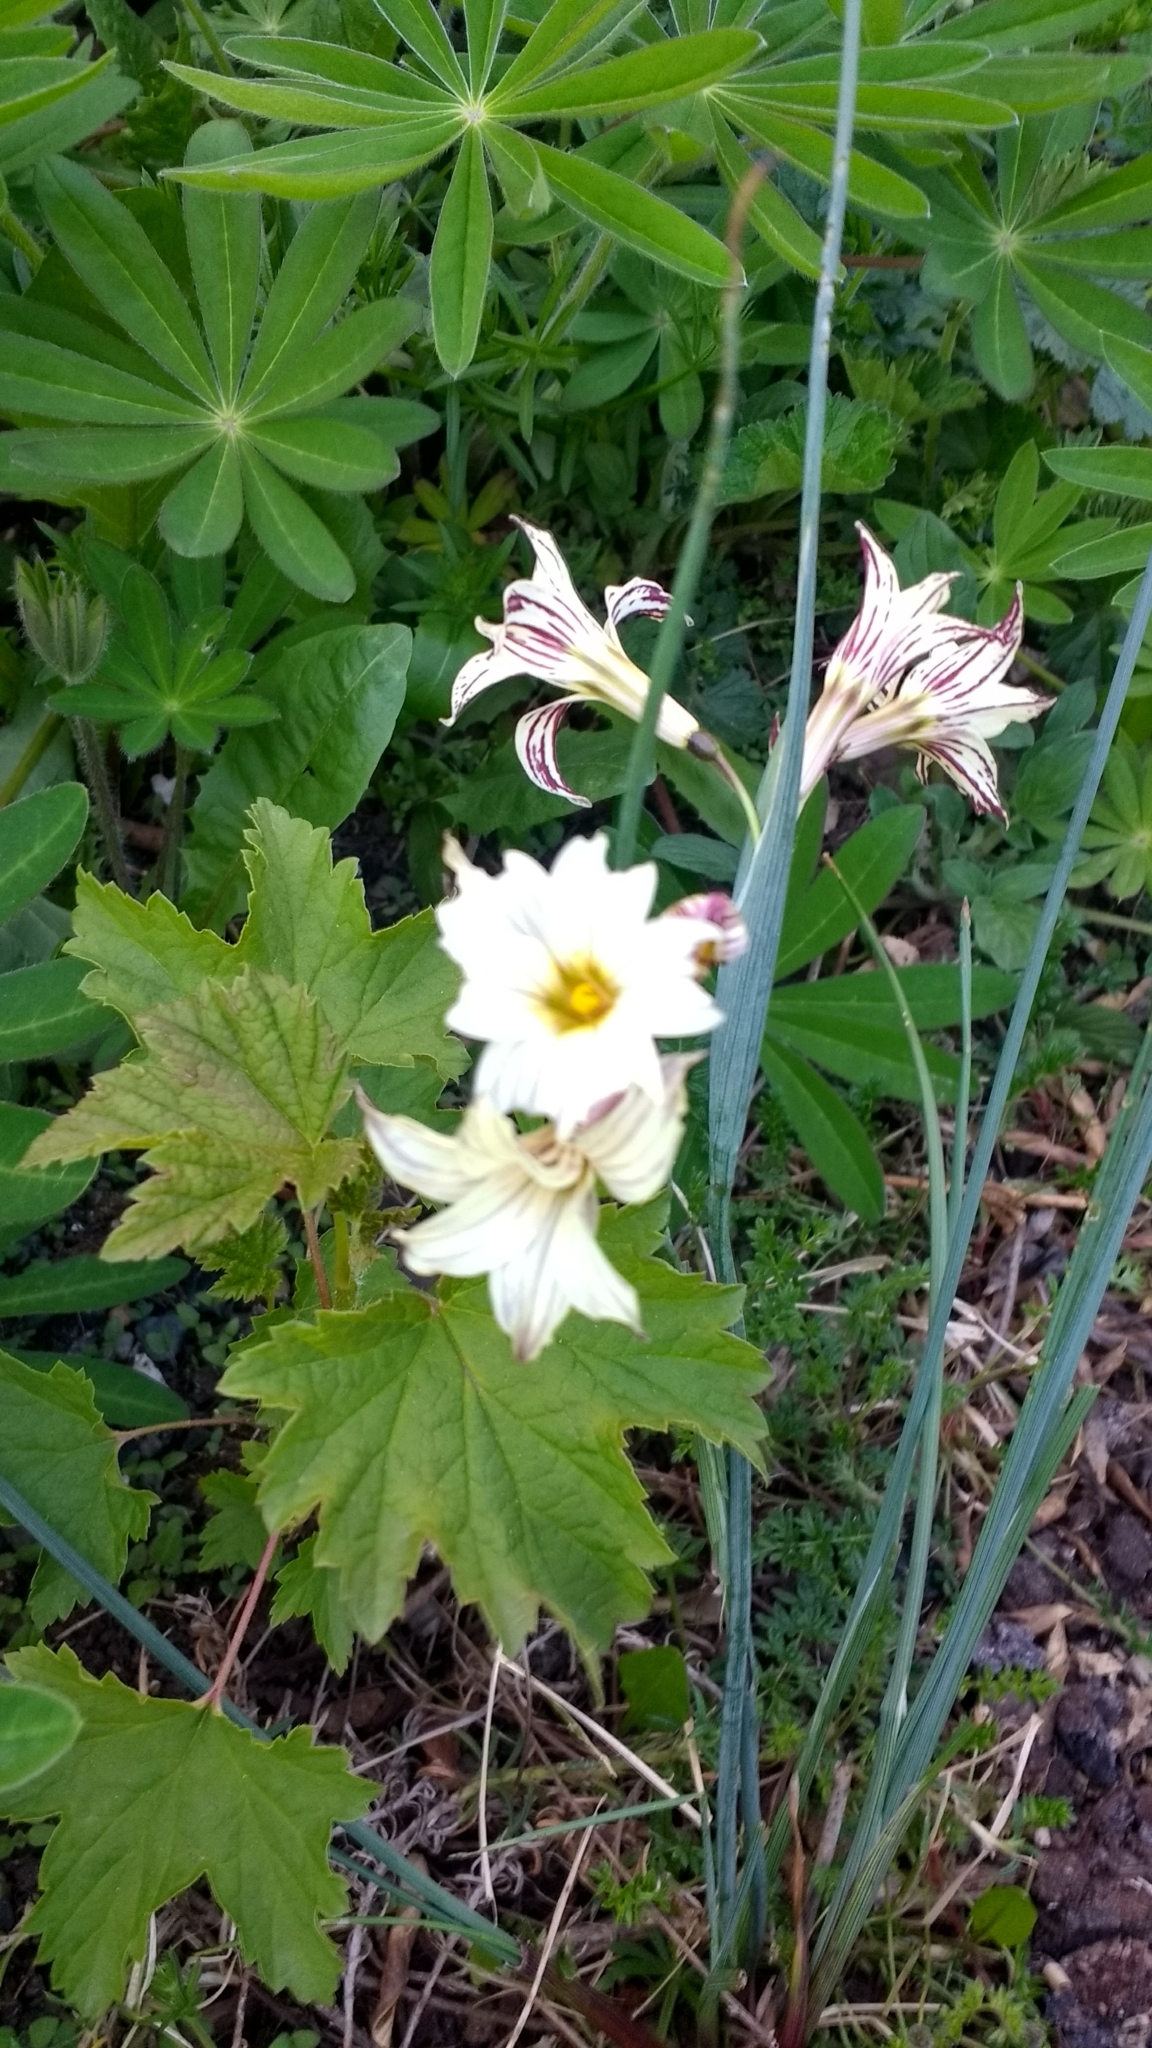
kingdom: Plantae
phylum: Tracheophyta
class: Liliopsida
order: Asparagales
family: Iridaceae
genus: Olsynium
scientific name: Olsynium biflorum
